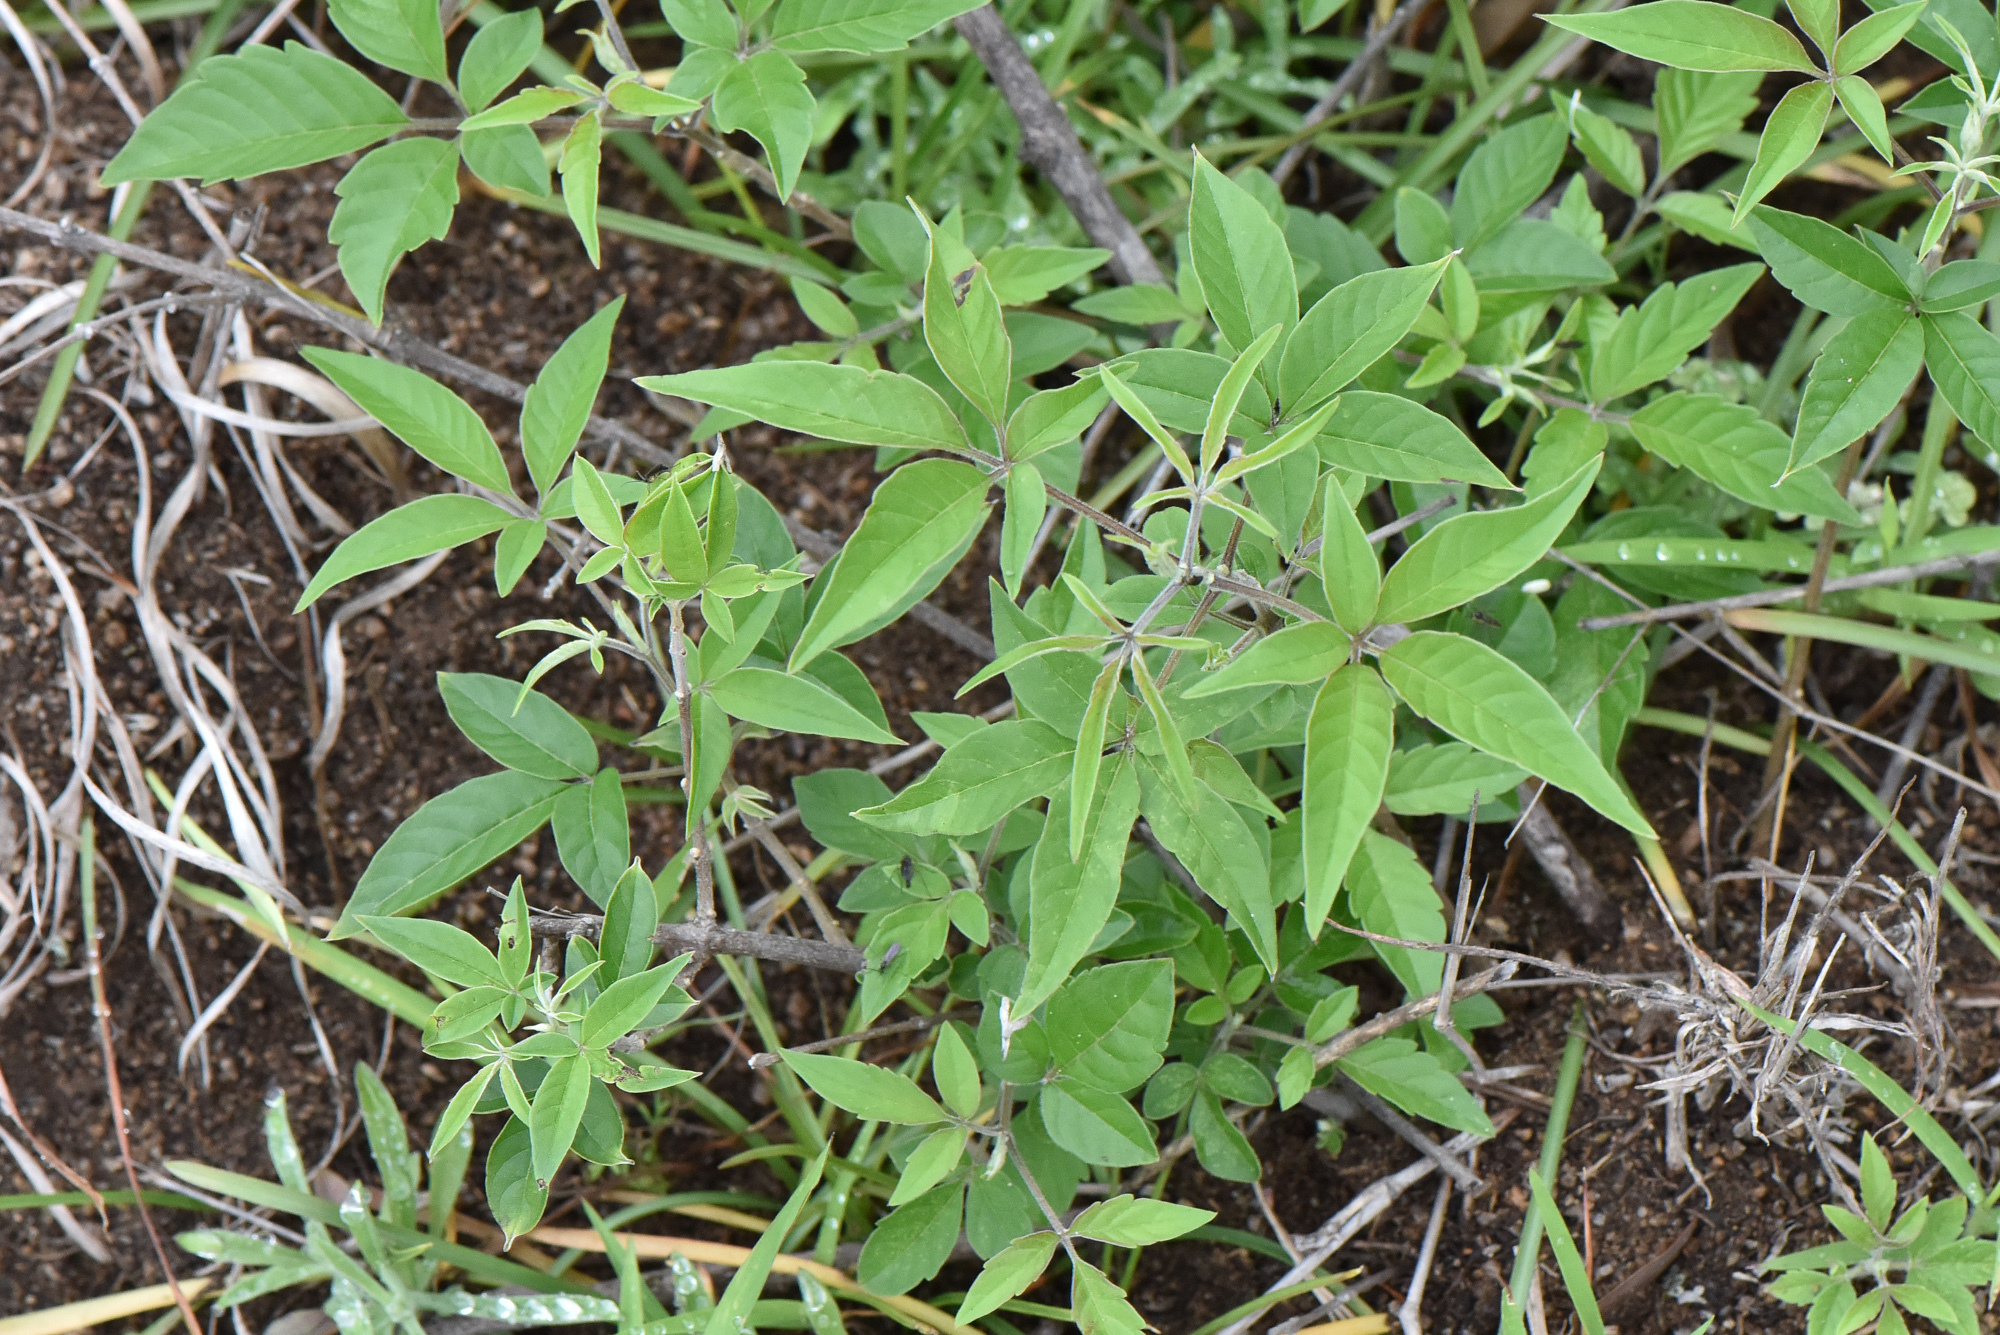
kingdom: Plantae
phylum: Tracheophyta
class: Magnoliopsida
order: Lamiales
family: Lamiaceae
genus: Vitex
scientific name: Vitex negundo
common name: Chinese chastetree
